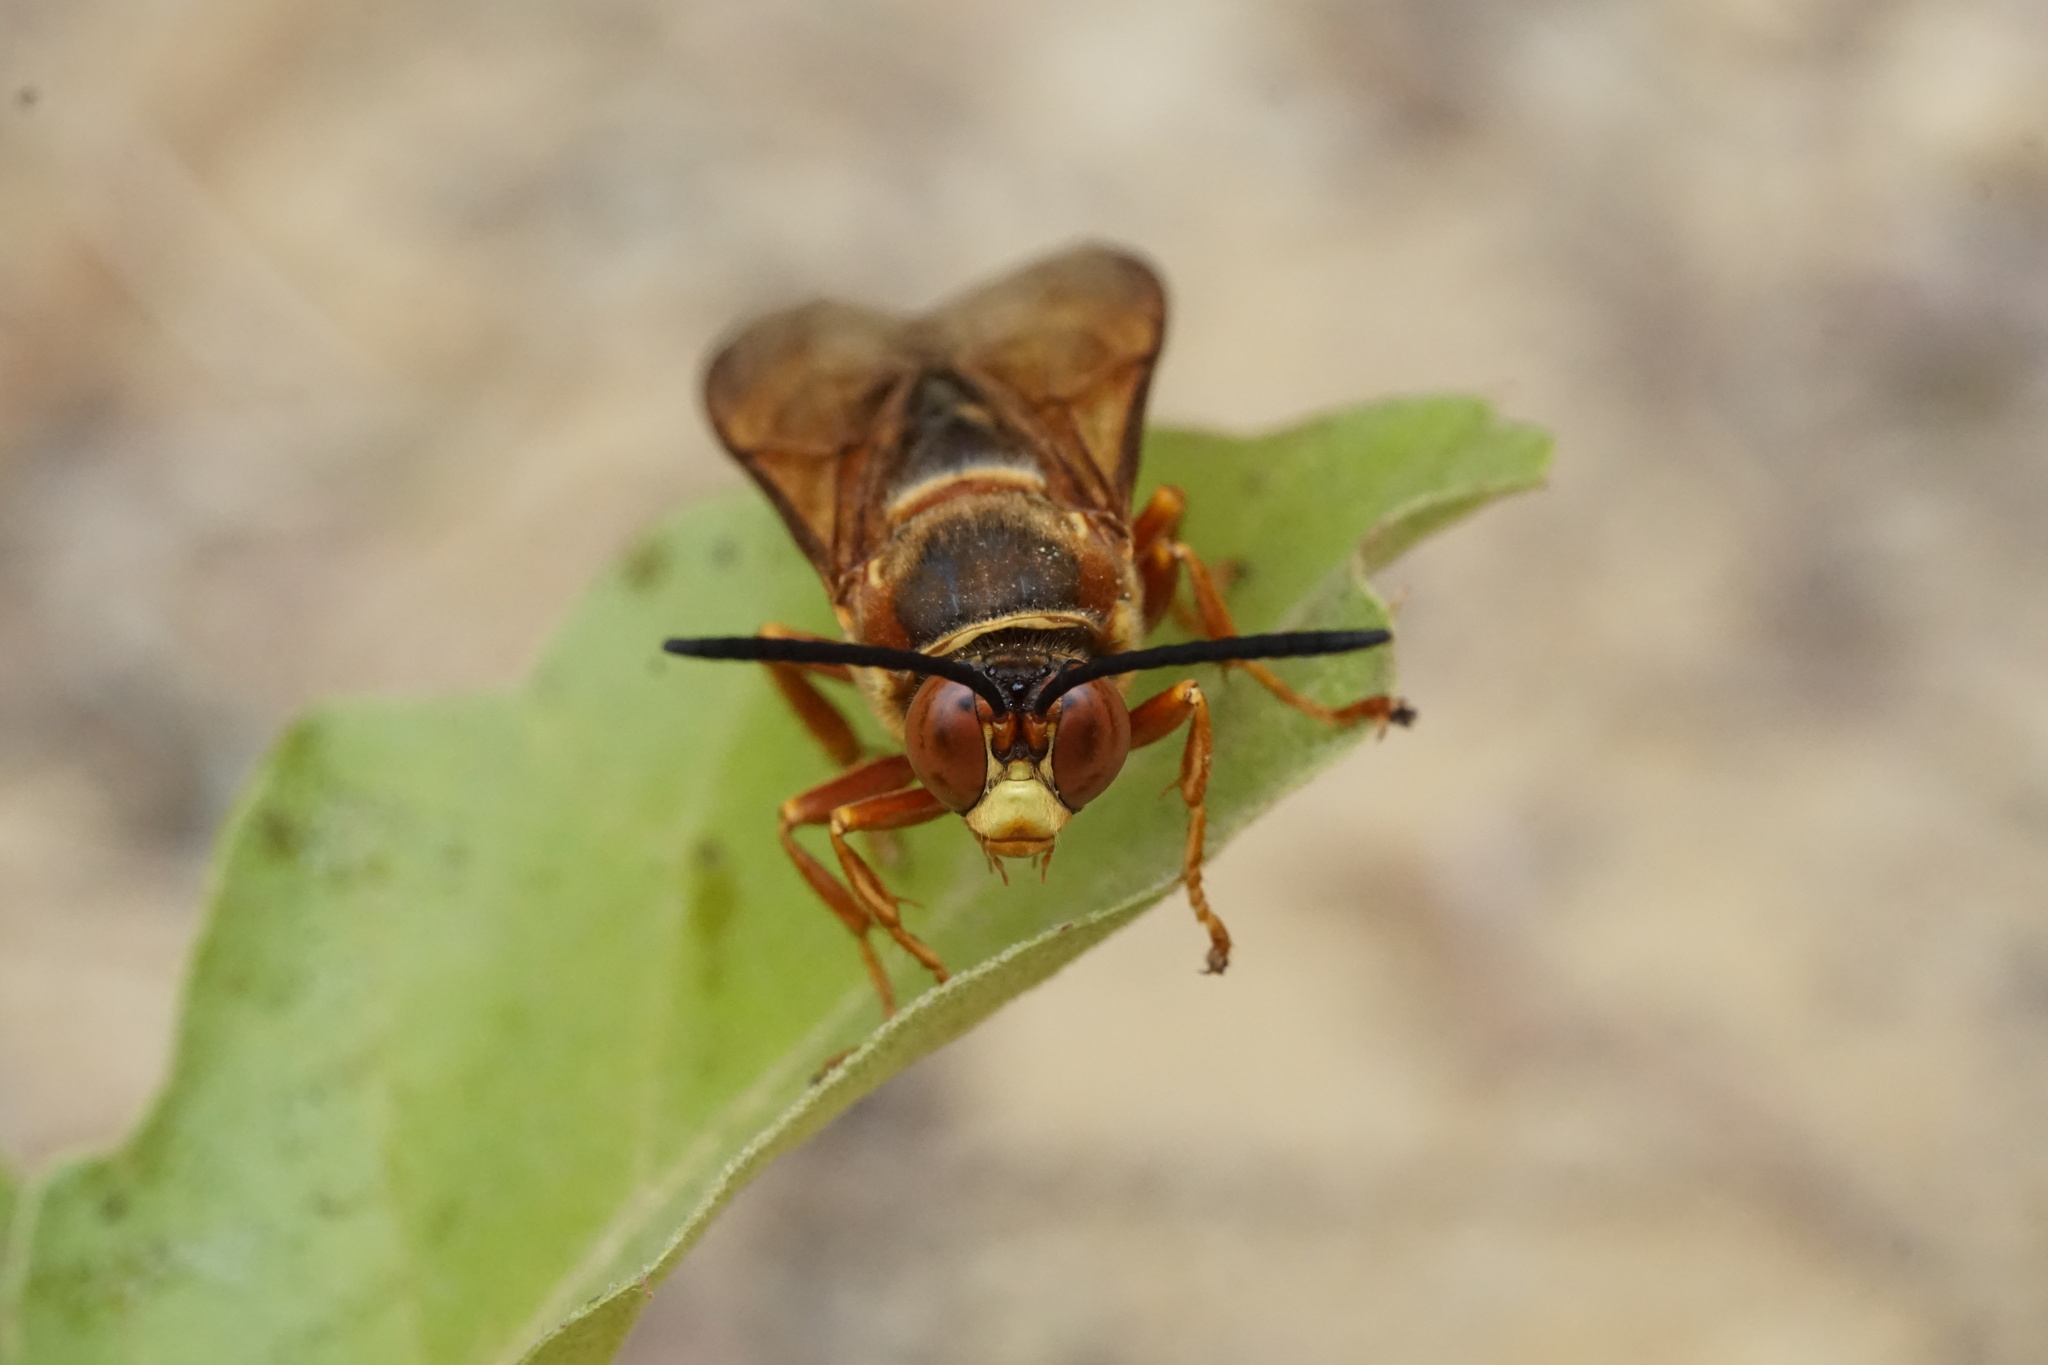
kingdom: Animalia
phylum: Arthropoda
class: Insecta
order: Hymenoptera
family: Crabronidae
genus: Sphecius
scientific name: Sphecius speciosus
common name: Cicada killer
